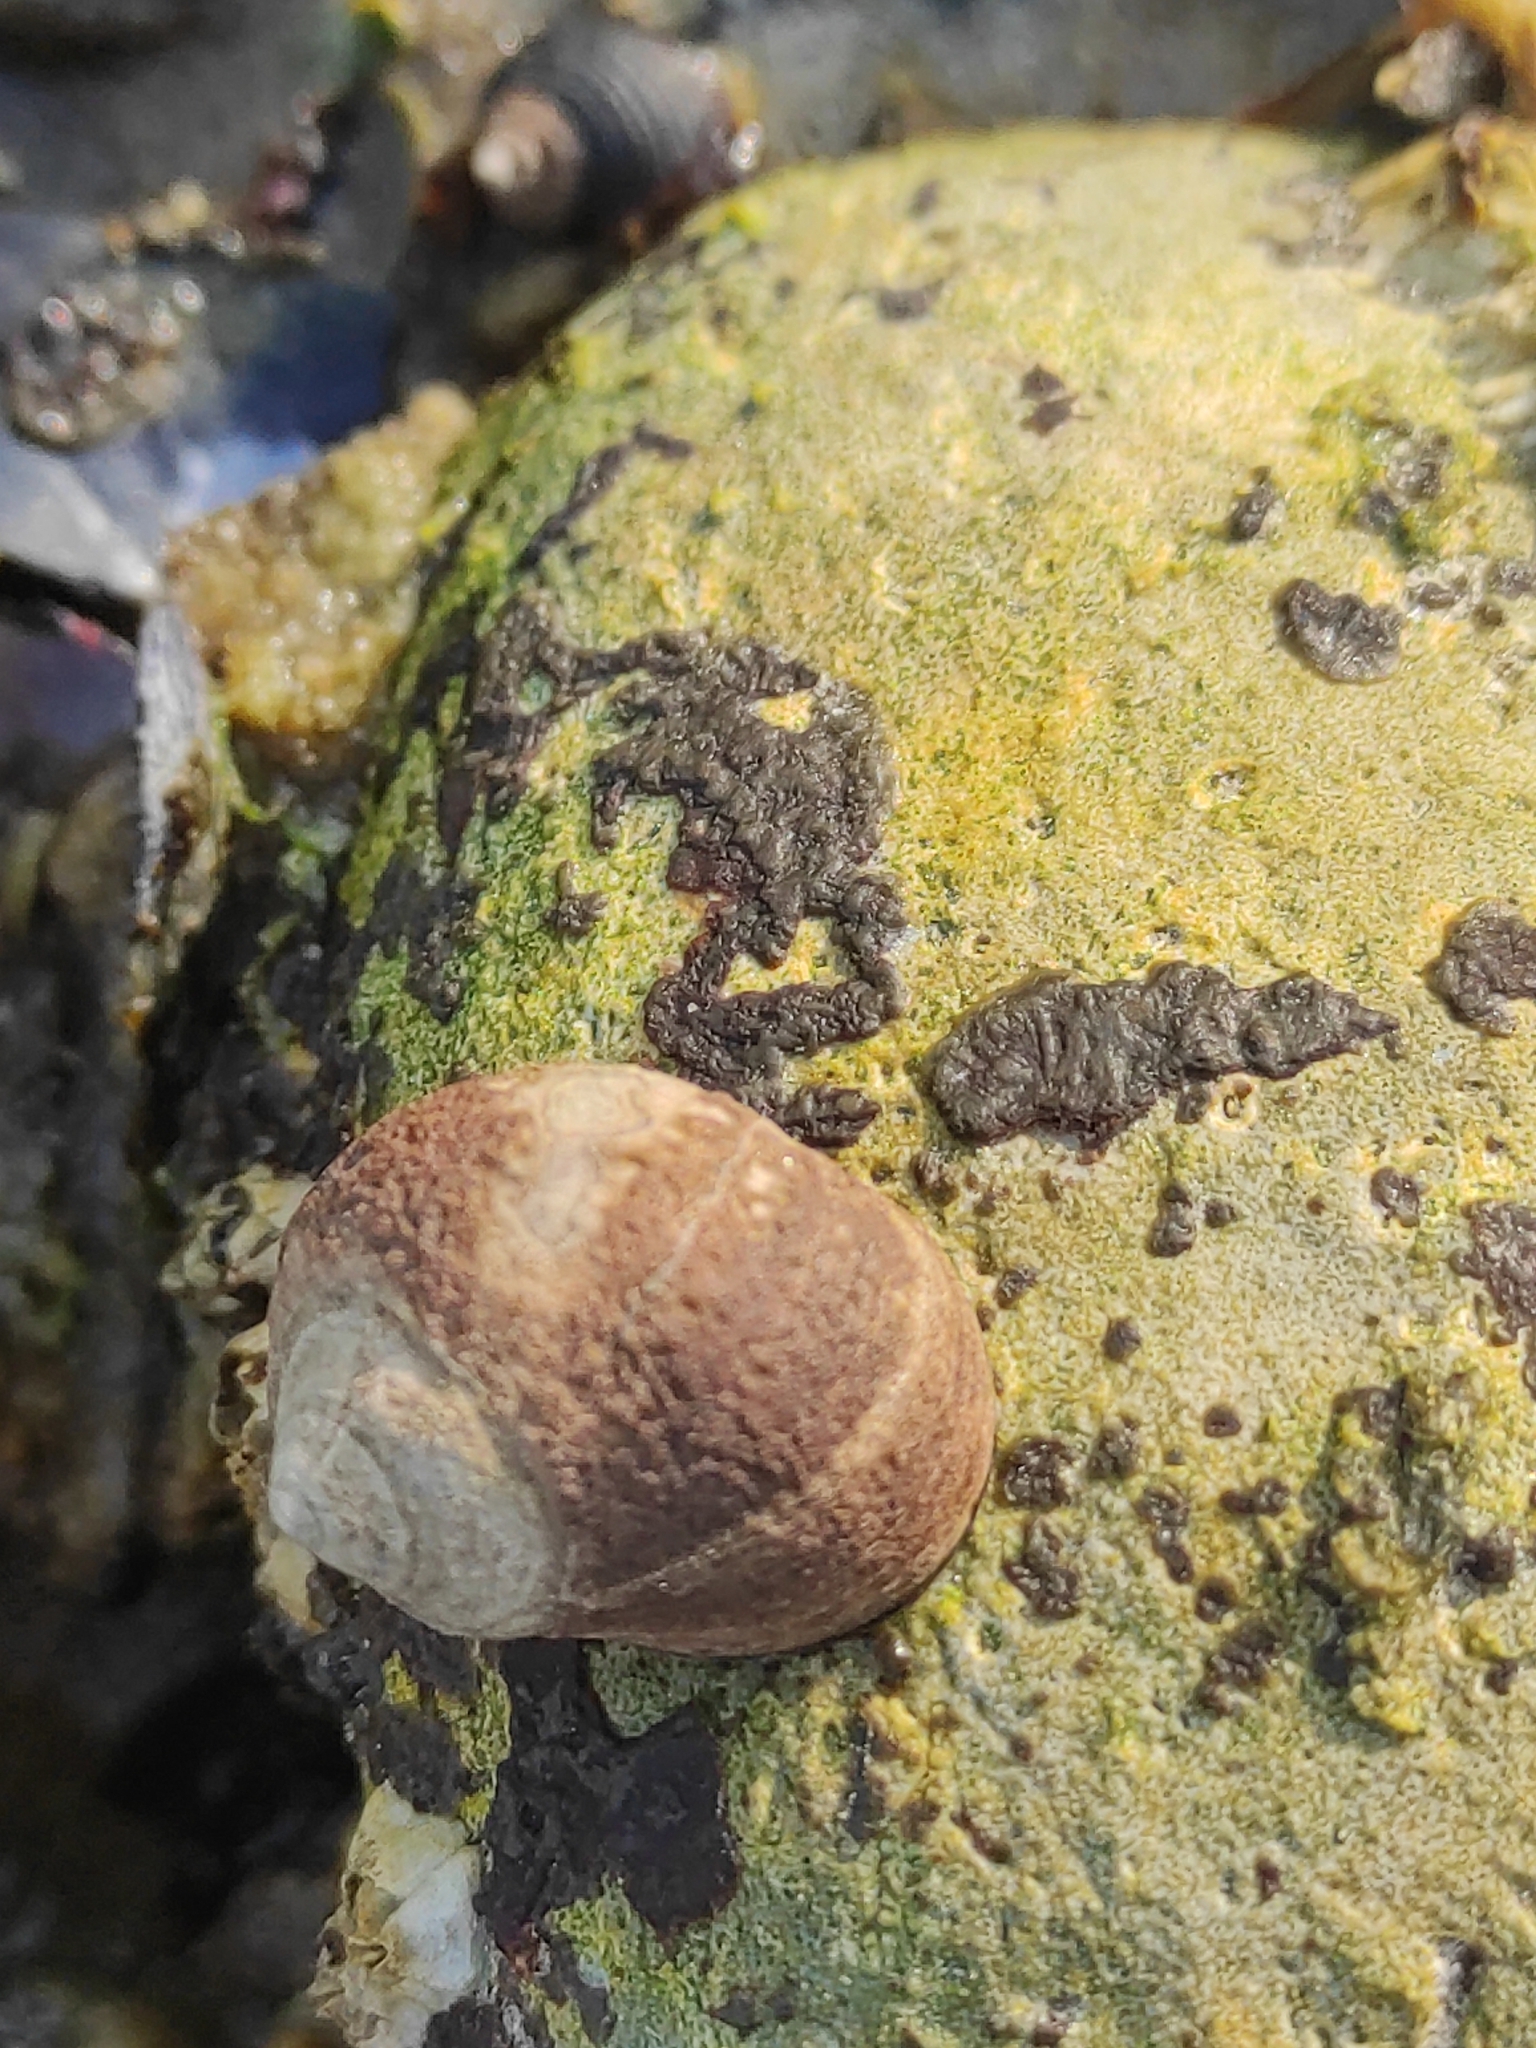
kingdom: Animalia
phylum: Mollusca
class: Gastropoda
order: Littorinimorpha
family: Littorinidae
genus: Littorina
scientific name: Littorina littorea
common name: Common periwinkle
